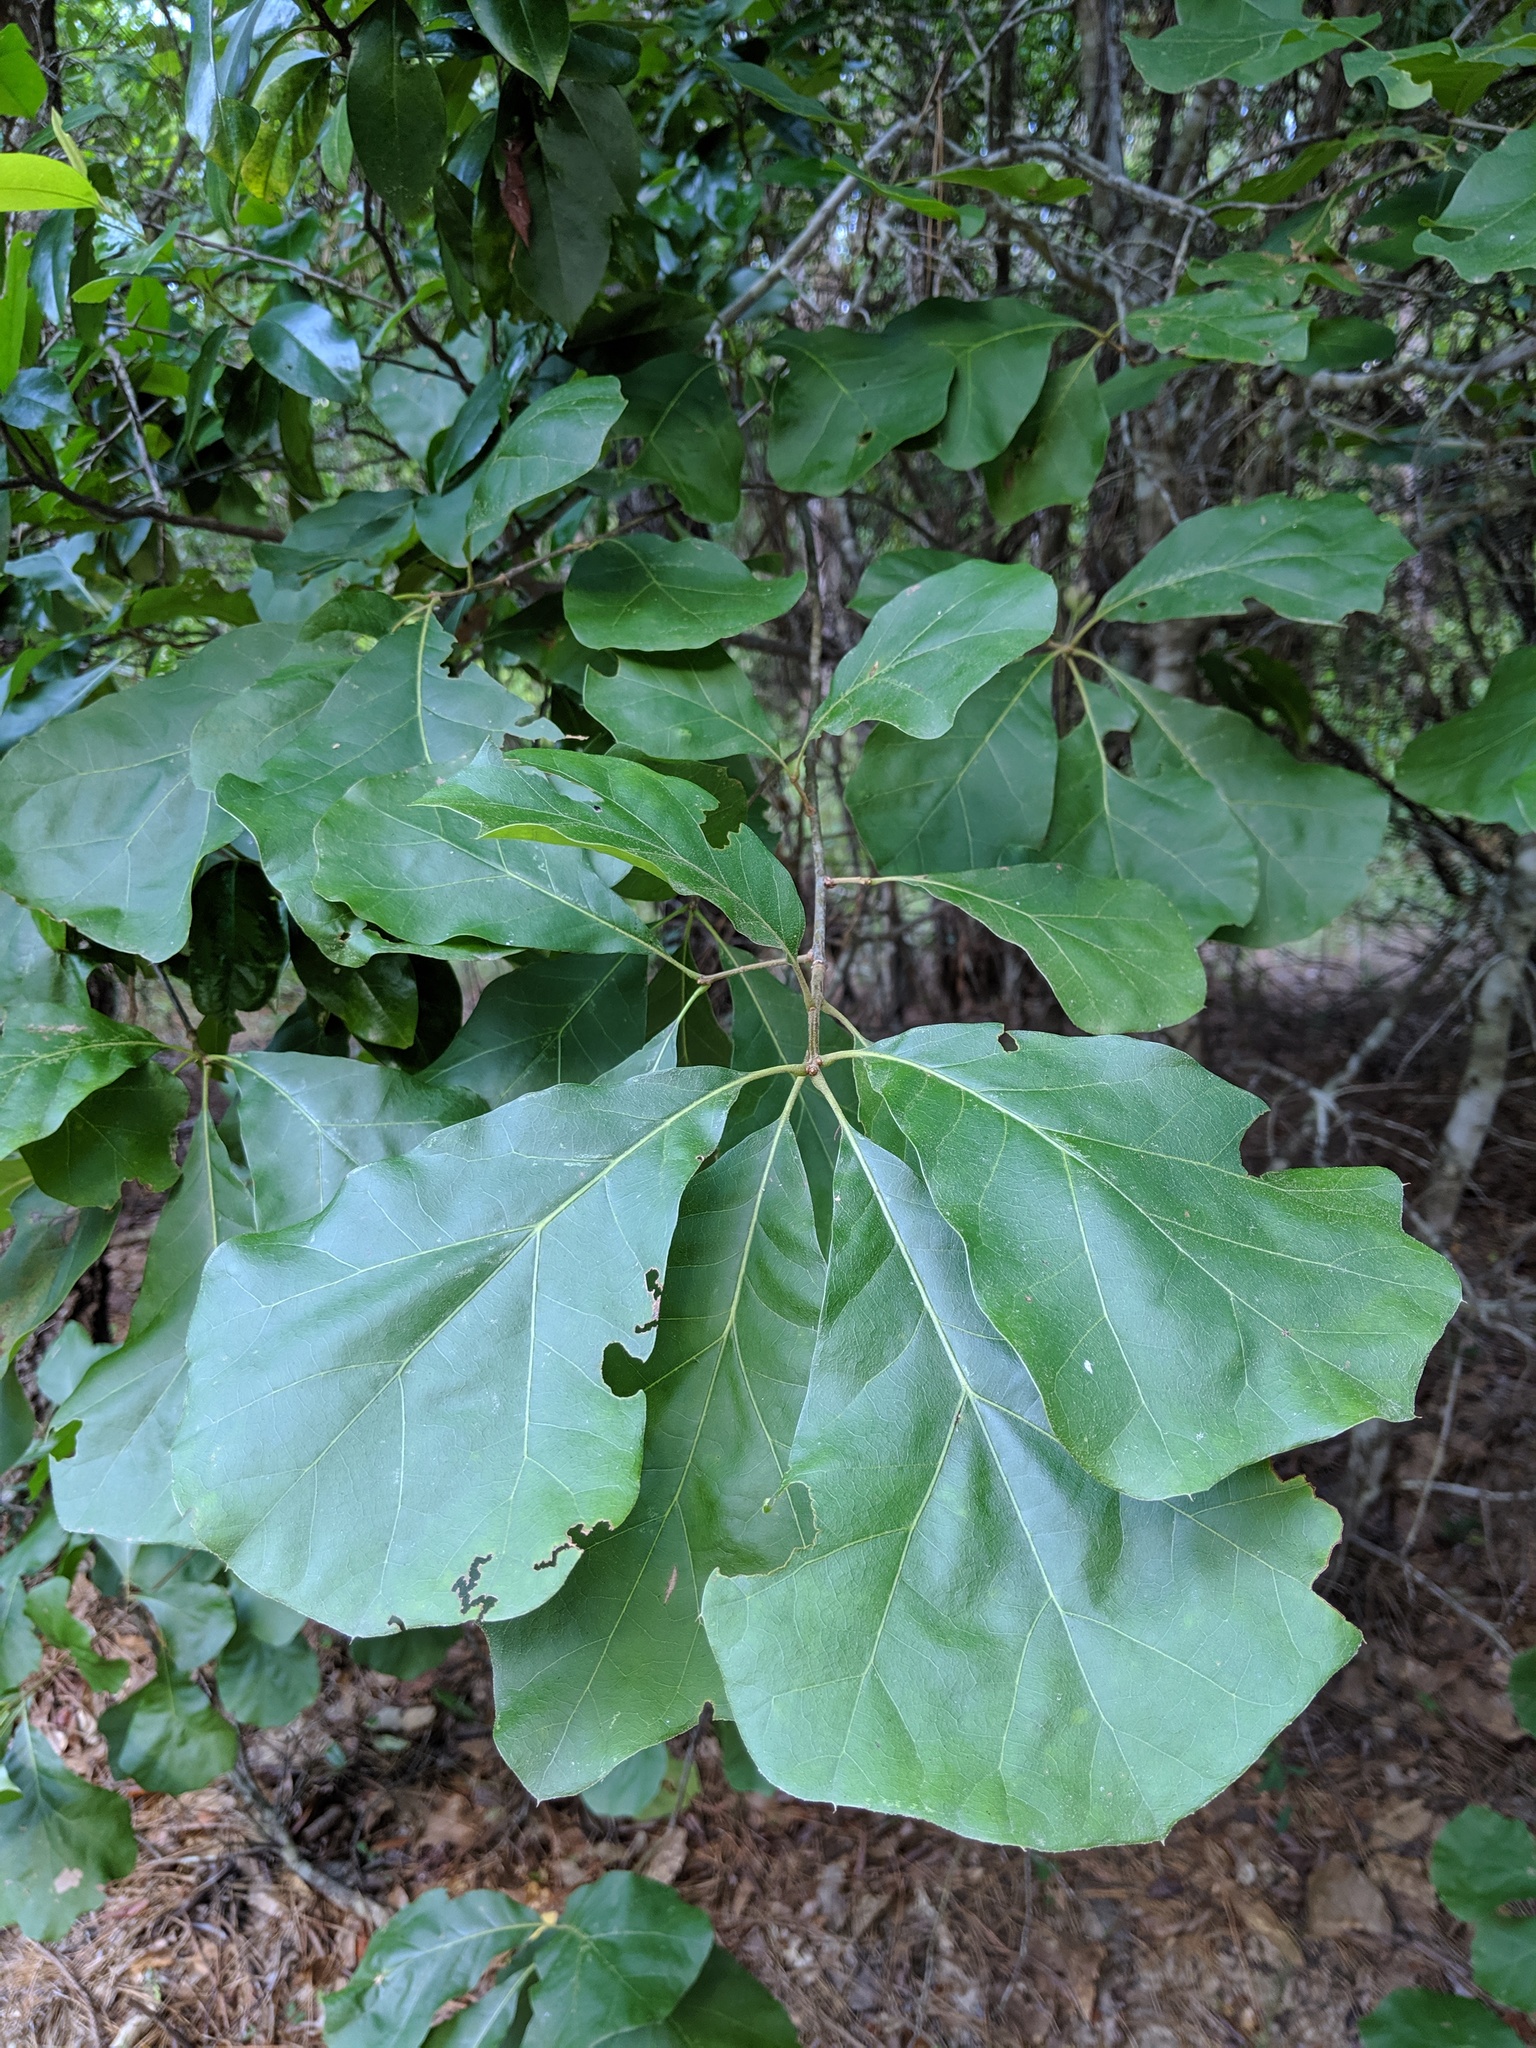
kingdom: Plantae
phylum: Tracheophyta
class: Magnoliopsida
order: Fagales
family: Fagaceae
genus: Quercus
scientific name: Quercus arkansana
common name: Arkansas oak
